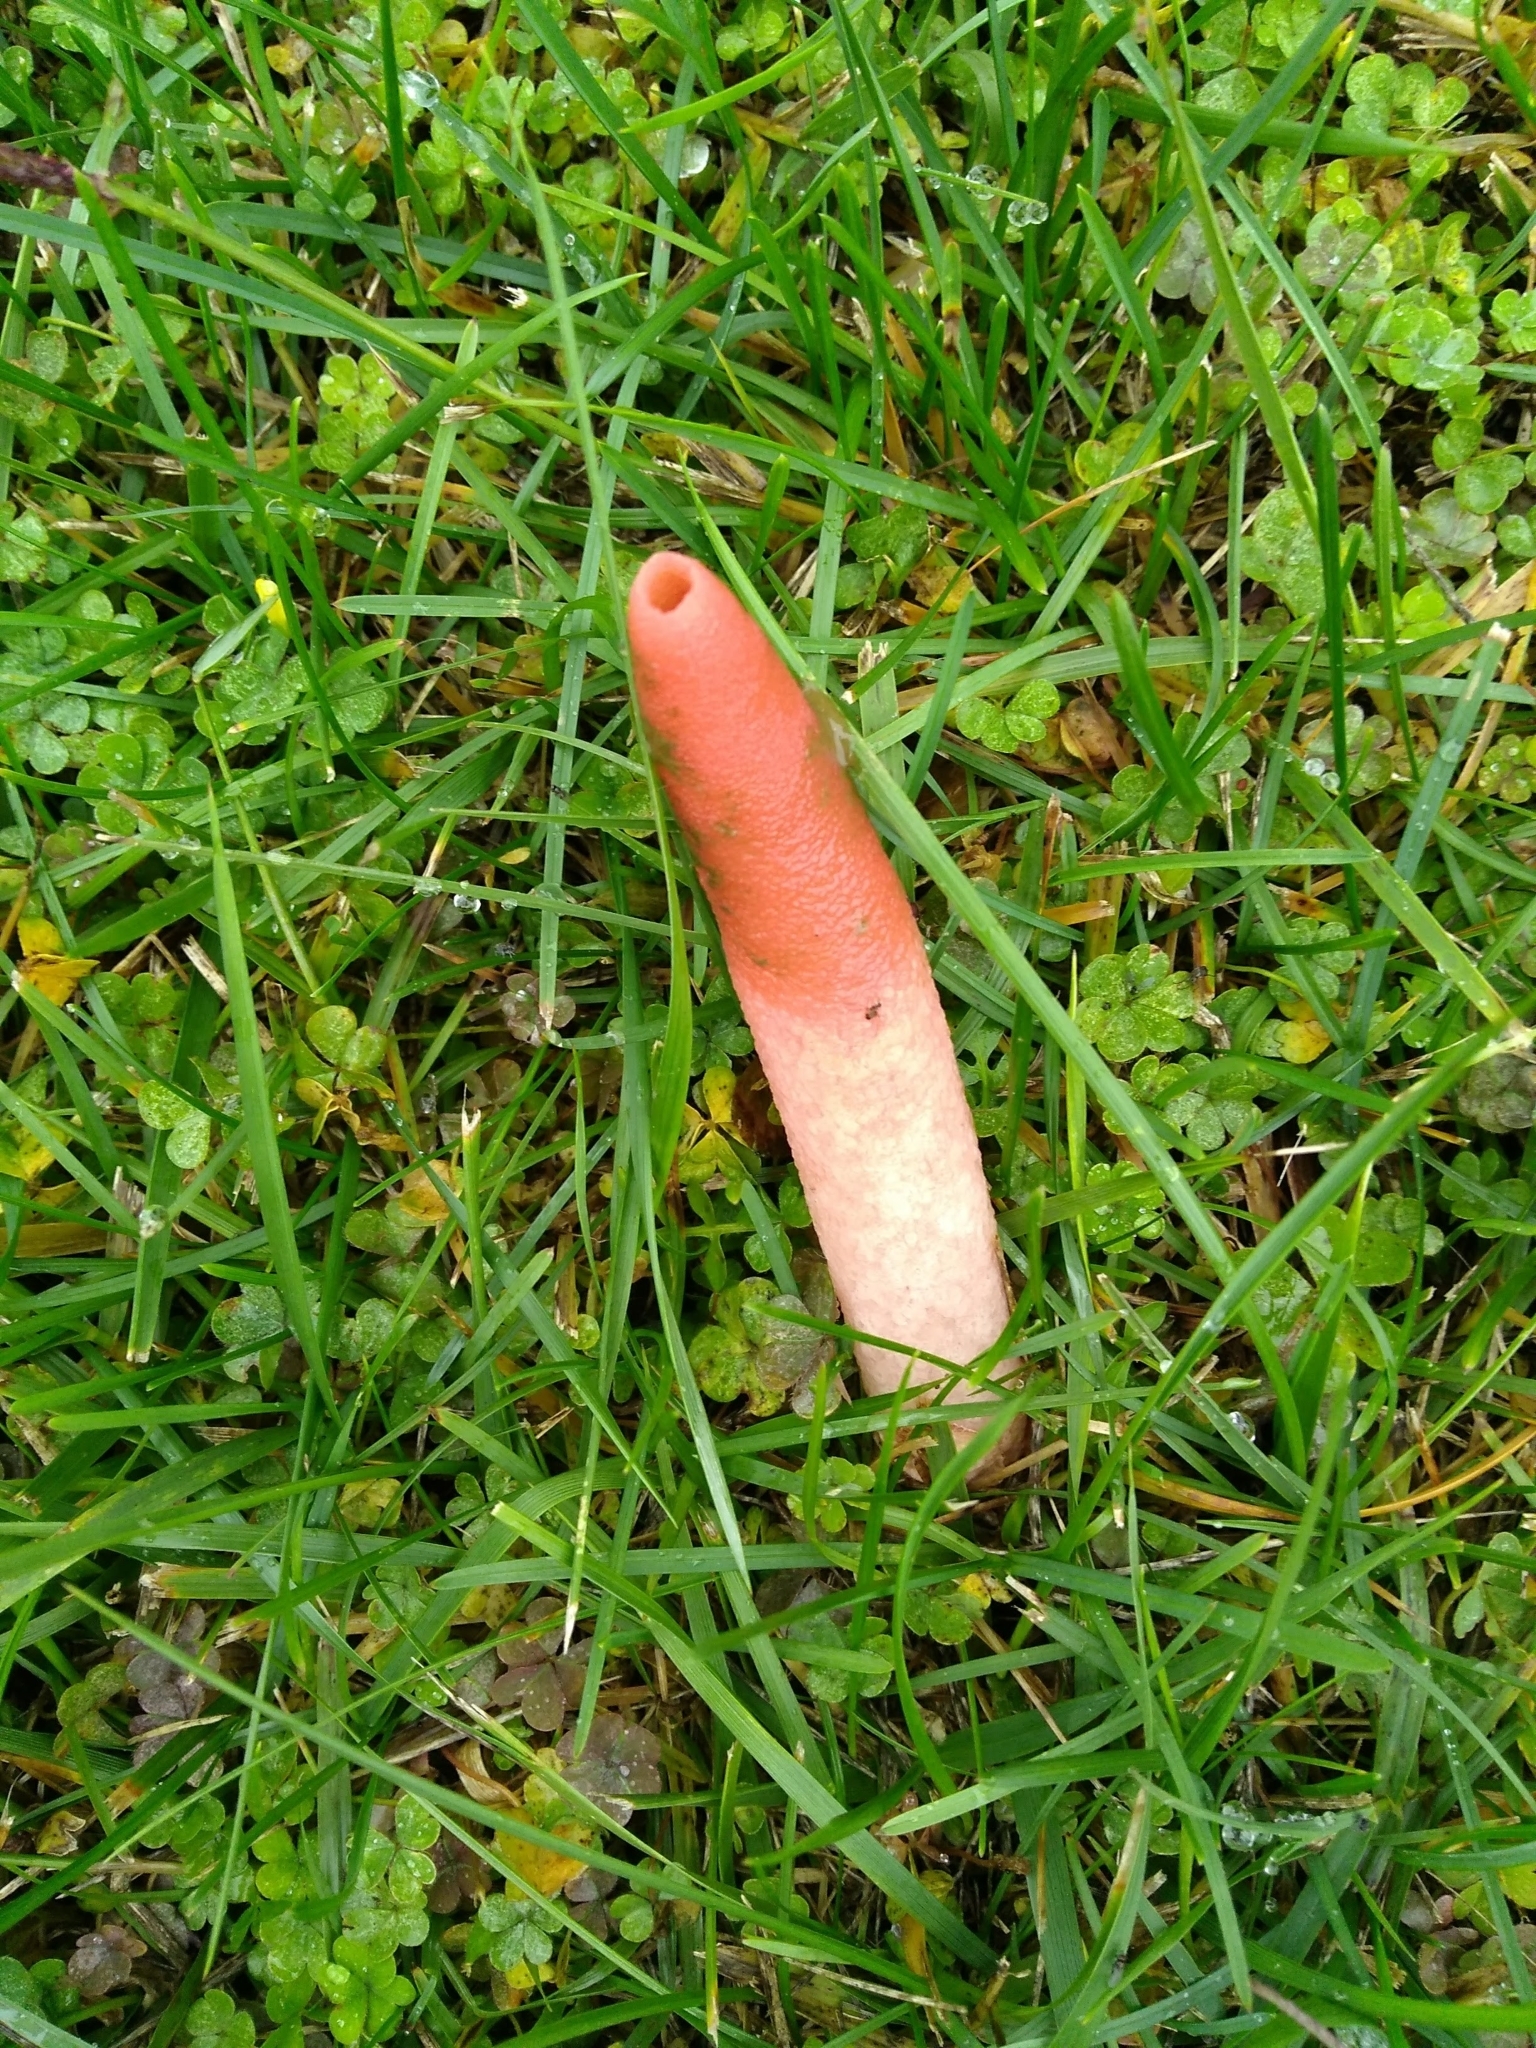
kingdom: Fungi
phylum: Basidiomycota
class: Agaricomycetes
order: Phallales
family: Phallaceae
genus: Mutinus
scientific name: Mutinus elegans
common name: Devil's dipstick
